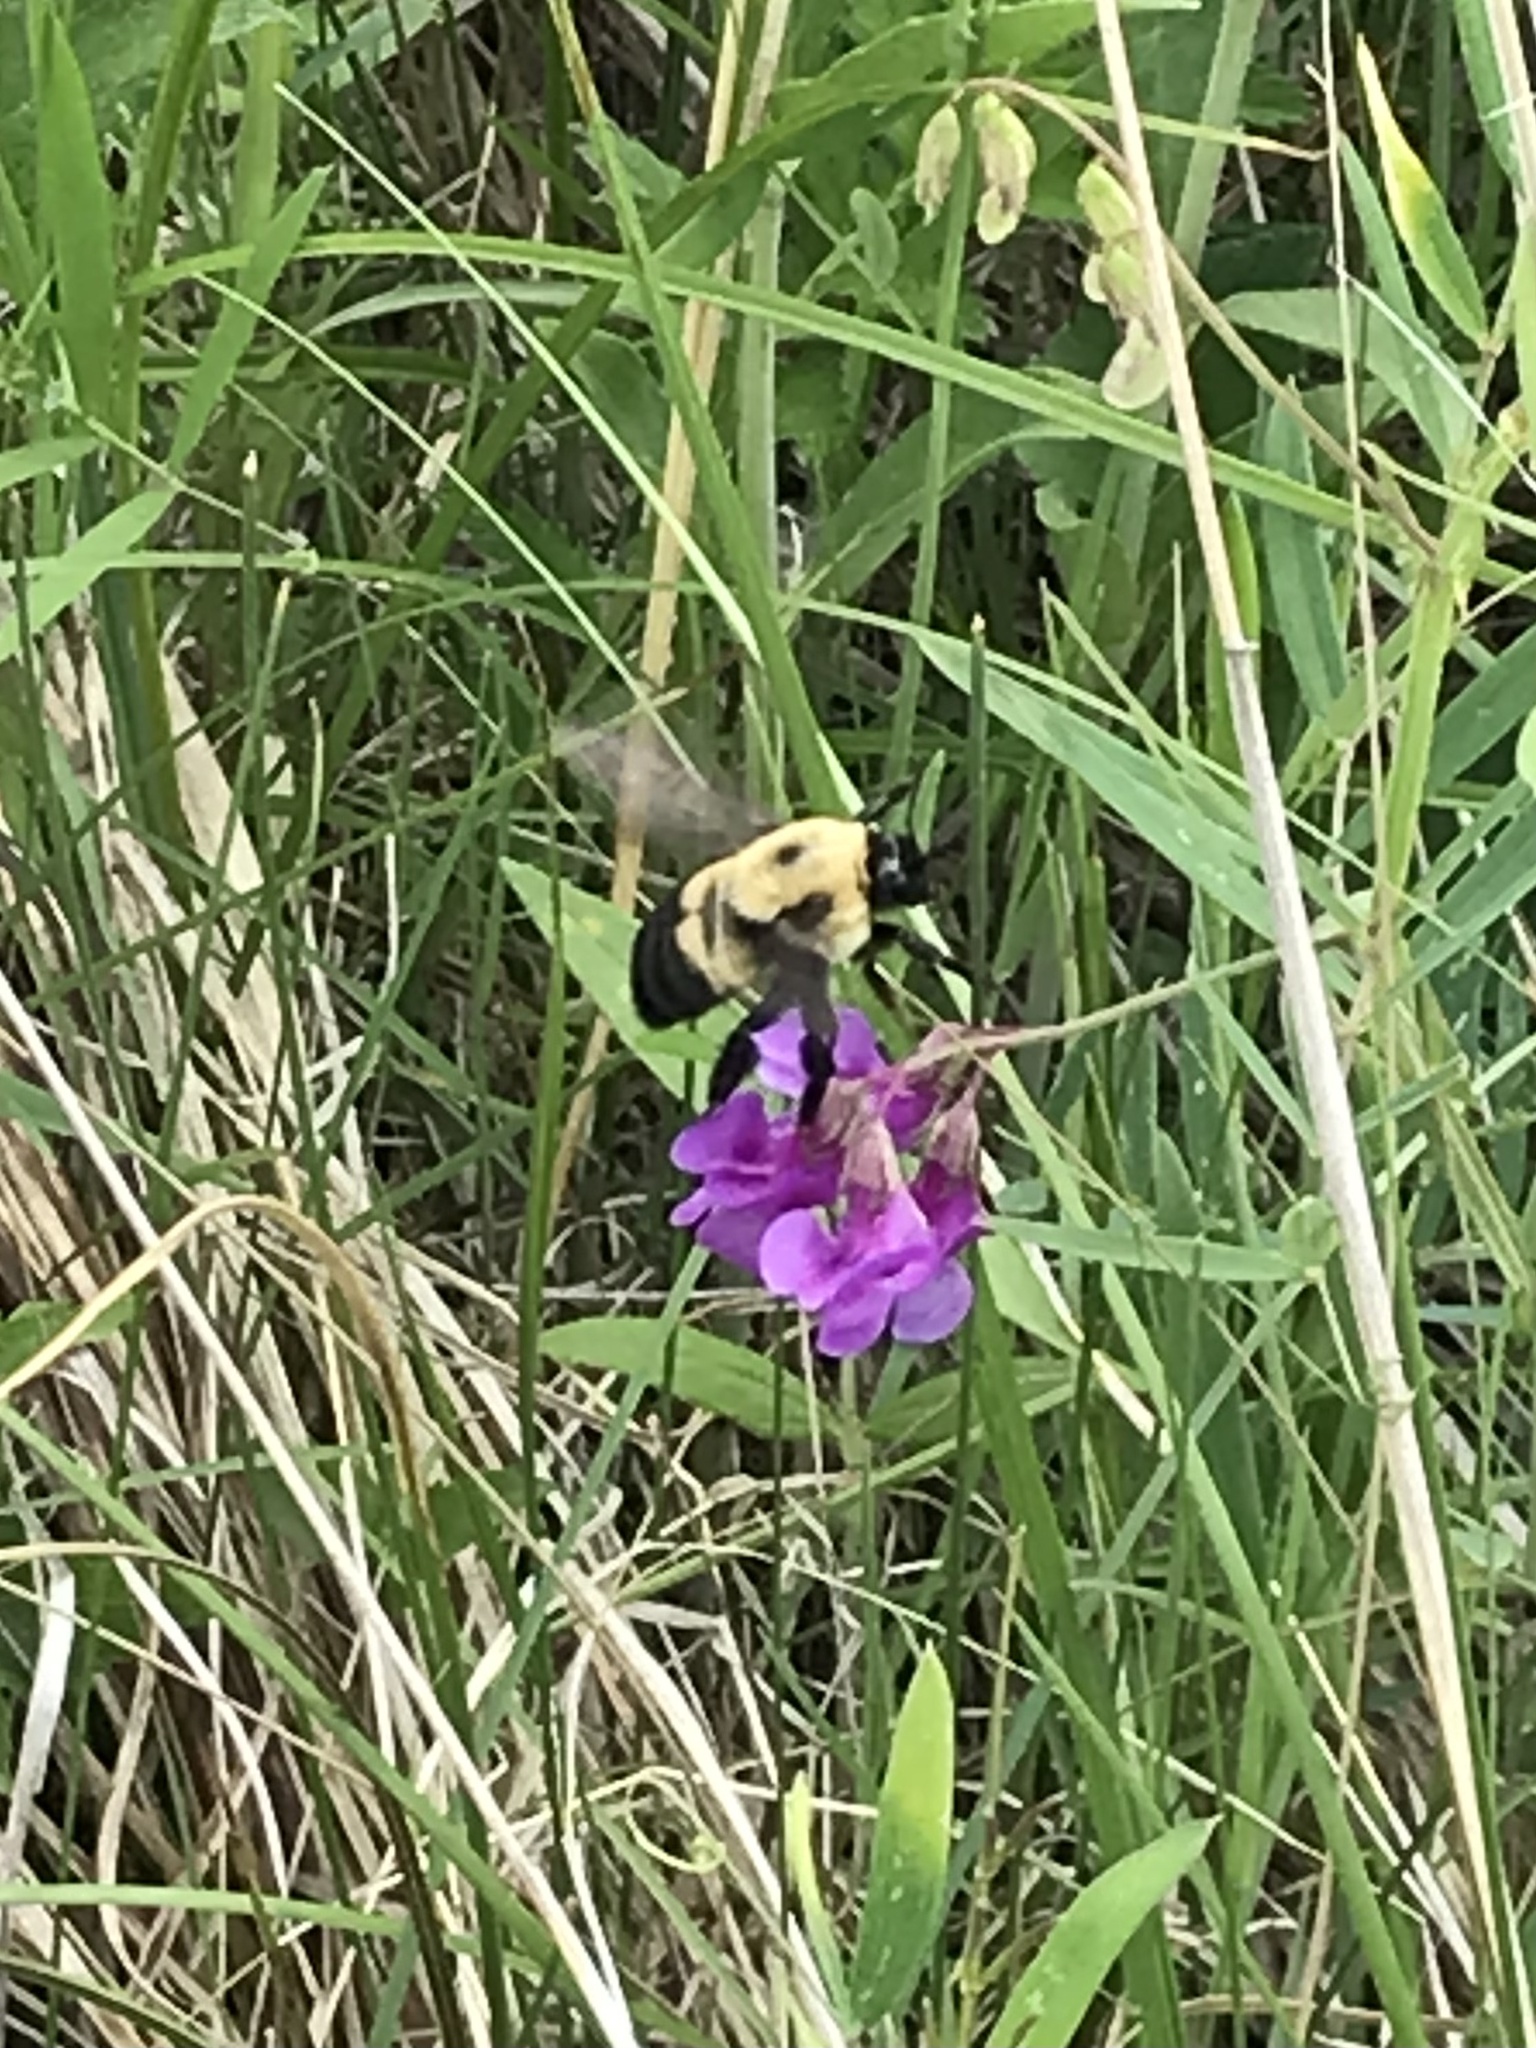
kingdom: Animalia
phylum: Arthropoda
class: Insecta
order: Hymenoptera
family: Apidae
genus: Bombus
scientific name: Bombus griseocollis
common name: Brown-belted bumble bee
